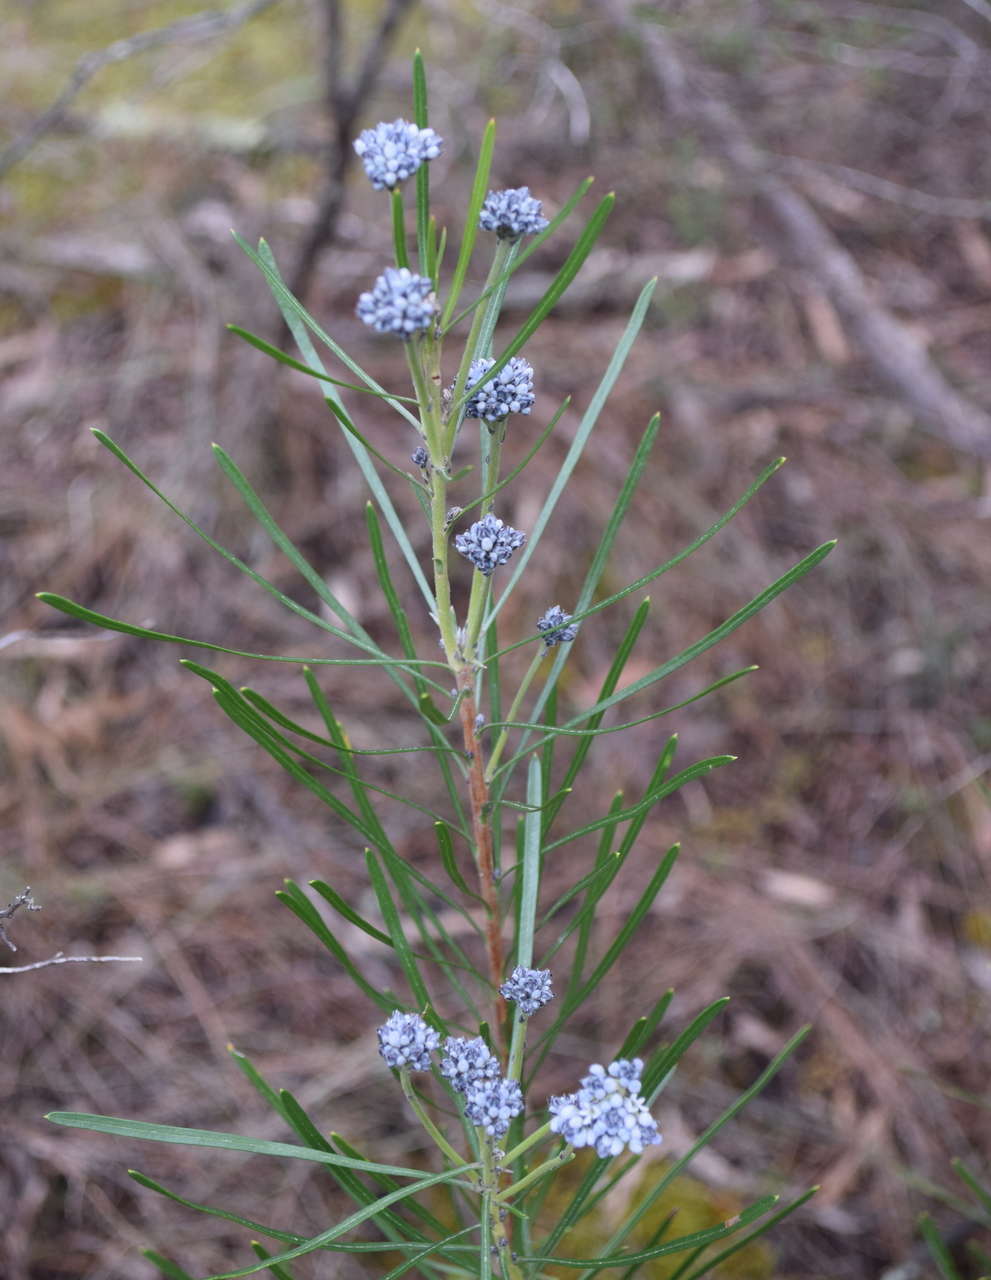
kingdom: Plantae
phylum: Tracheophyta
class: Magnoliopsida
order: Proteales
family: Proteaceae
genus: Conospermum
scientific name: Conospermum mitchellii
